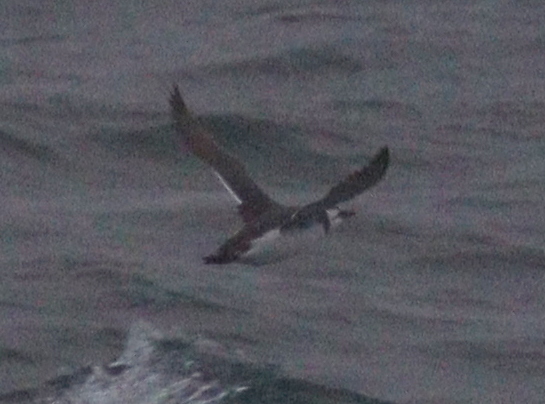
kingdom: Animalia
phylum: Chordata
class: Aves
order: Charadriiformes
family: Alcidae
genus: Uria
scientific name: Uria aalge
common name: Common murre
